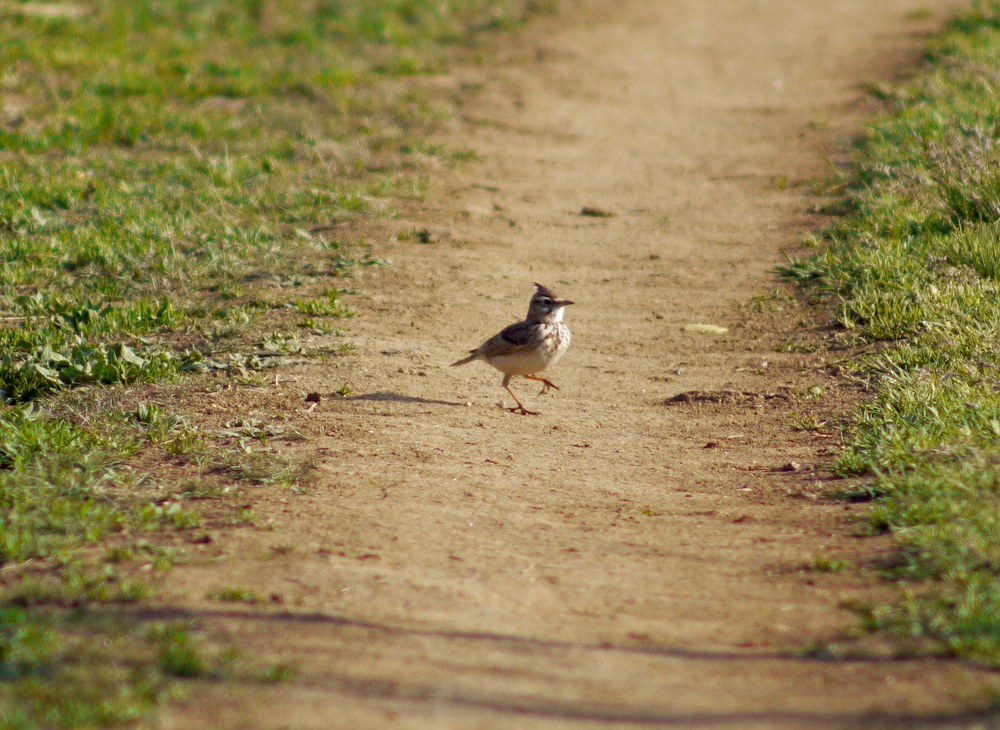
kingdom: Animalia
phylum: Chordata
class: Aves
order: Passeriformes
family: Alaudidae
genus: Galerida
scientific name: Galerida cristata
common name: Crested lark
